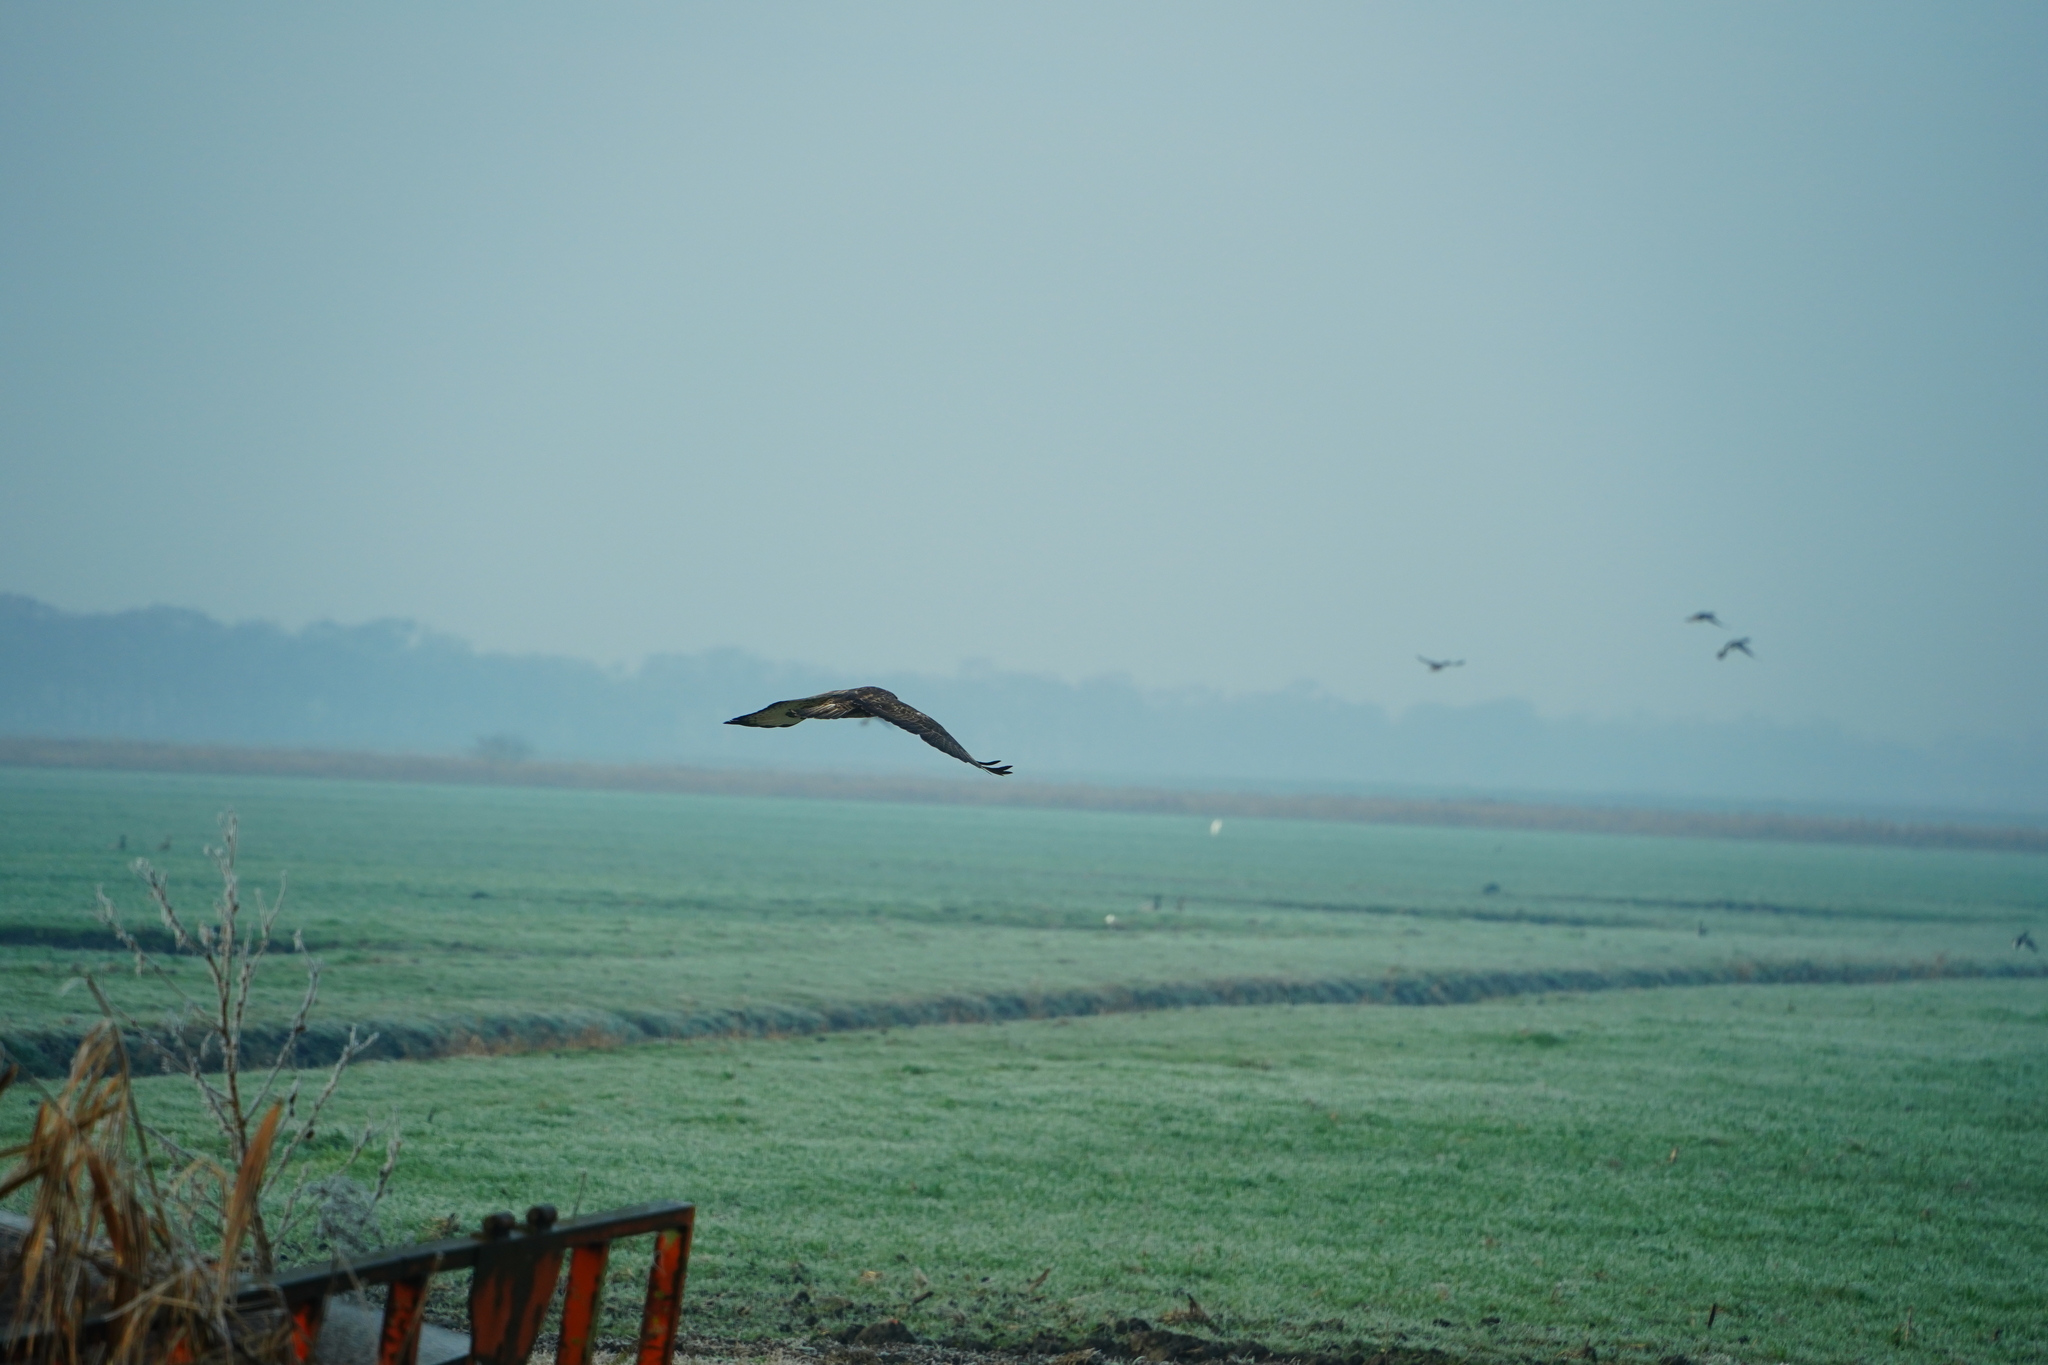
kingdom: Animalia
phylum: Chordata
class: Aves
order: Accipitriformes
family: Accipitridae
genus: Buteo
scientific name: Buteo buteo
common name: Common buzzard
